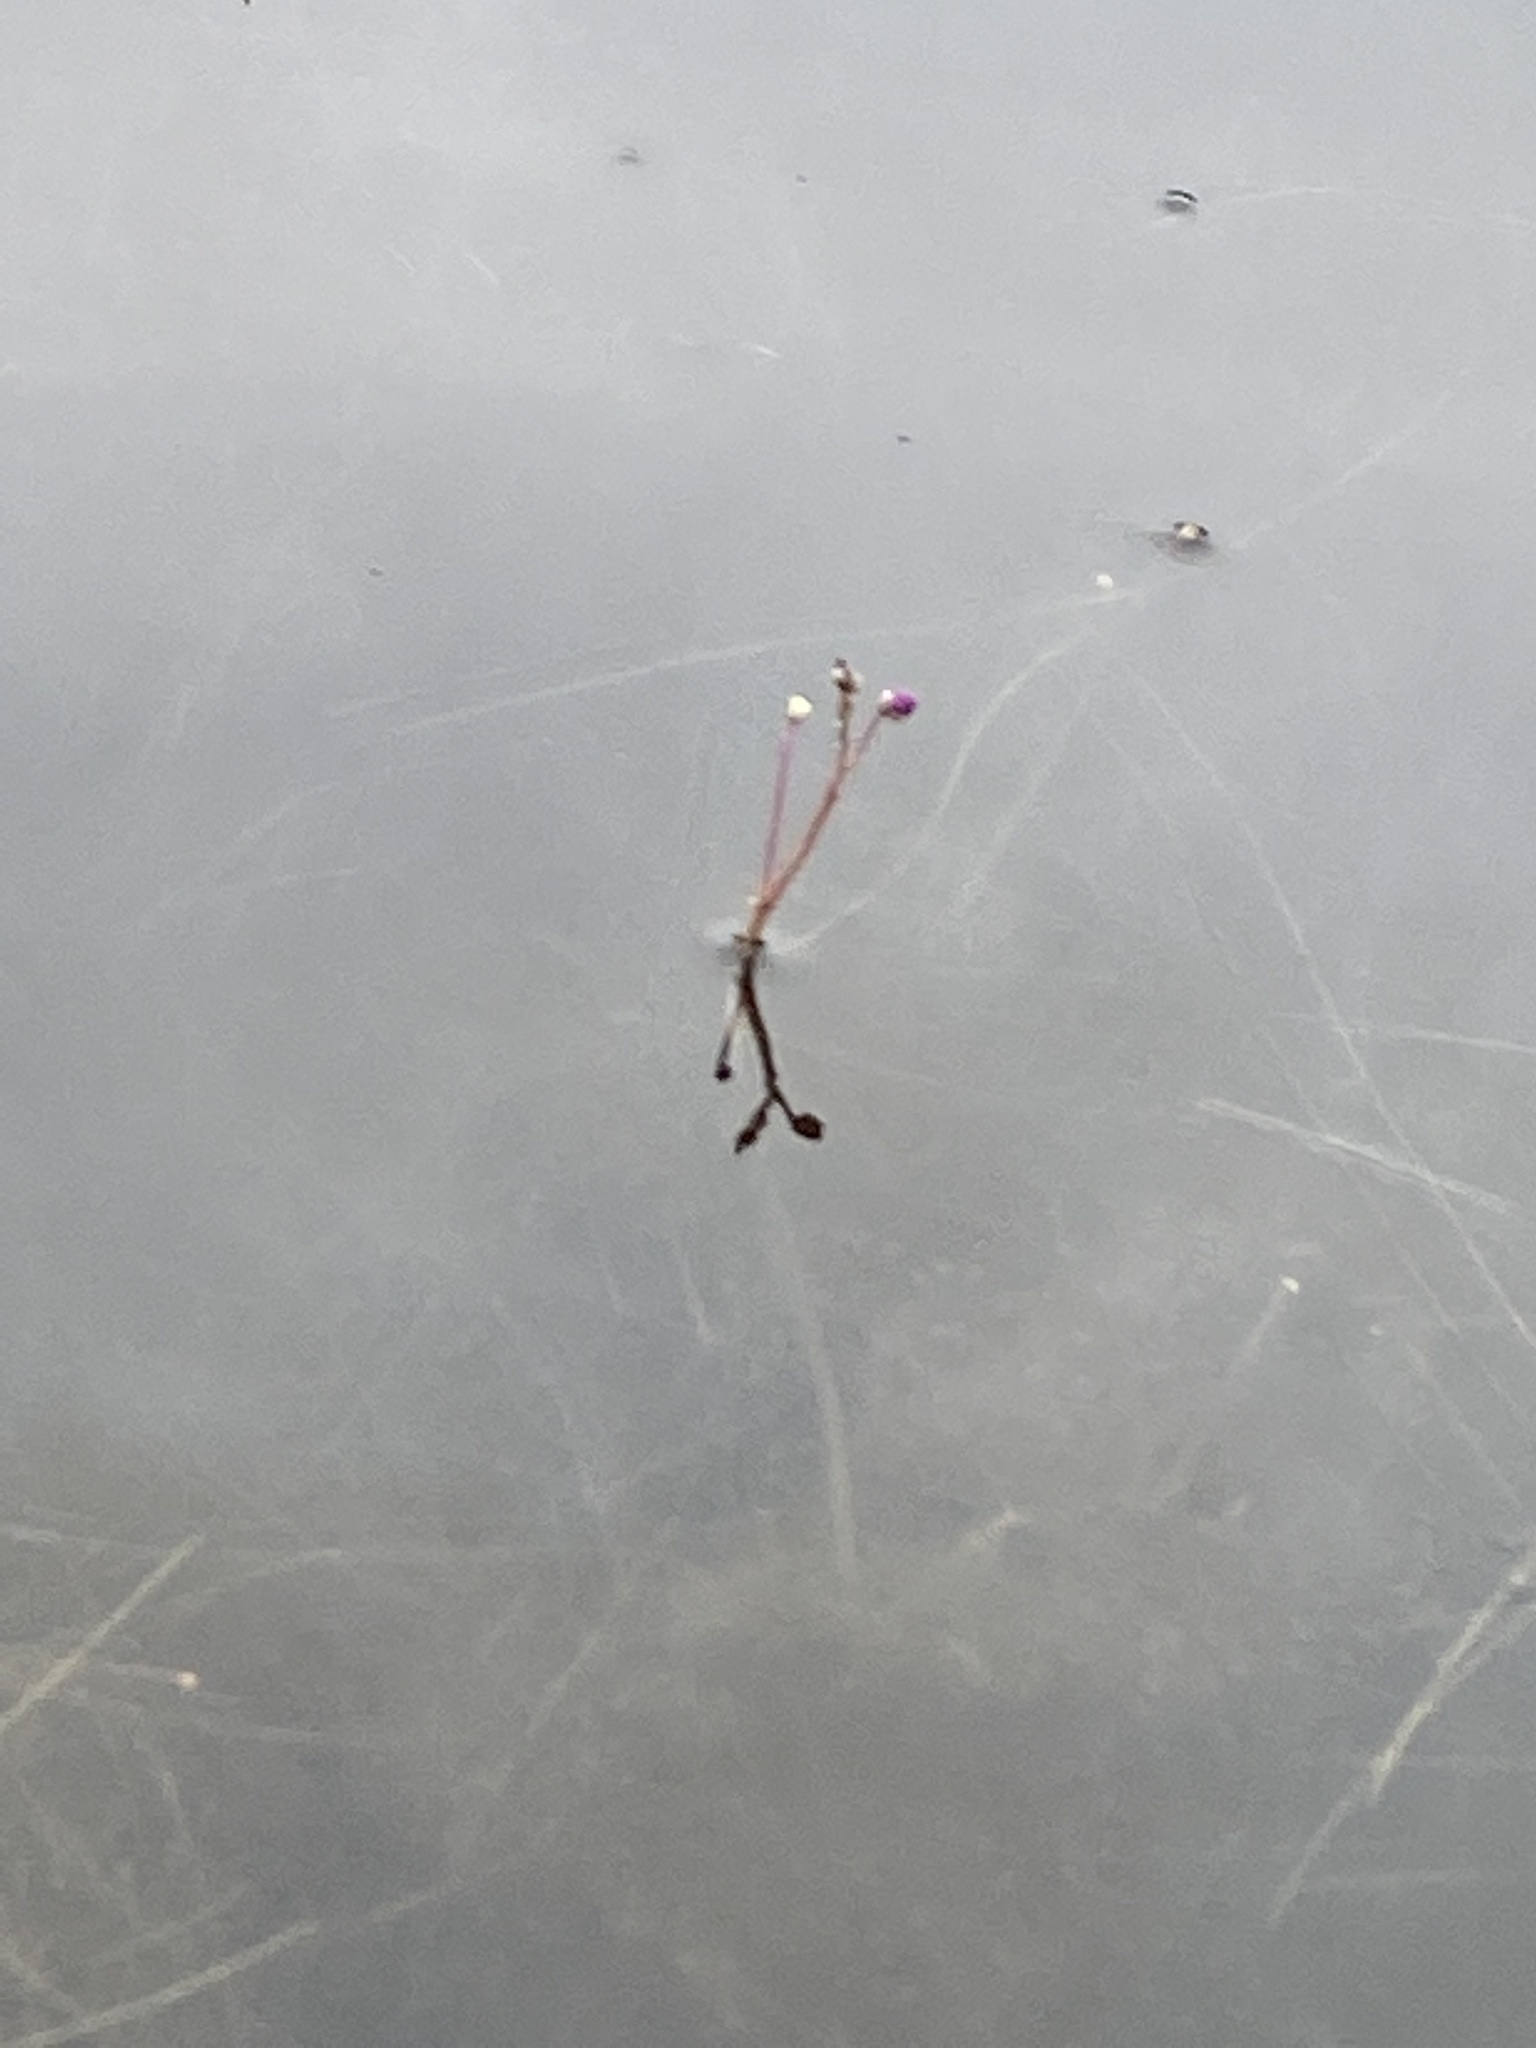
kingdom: Plantae
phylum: Tracheophyta
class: Magnoliopsida
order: Lamiales
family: Lentibulariaceae
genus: Utricularia
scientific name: Utricularia purpurea
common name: Eastern purple bladderwort
